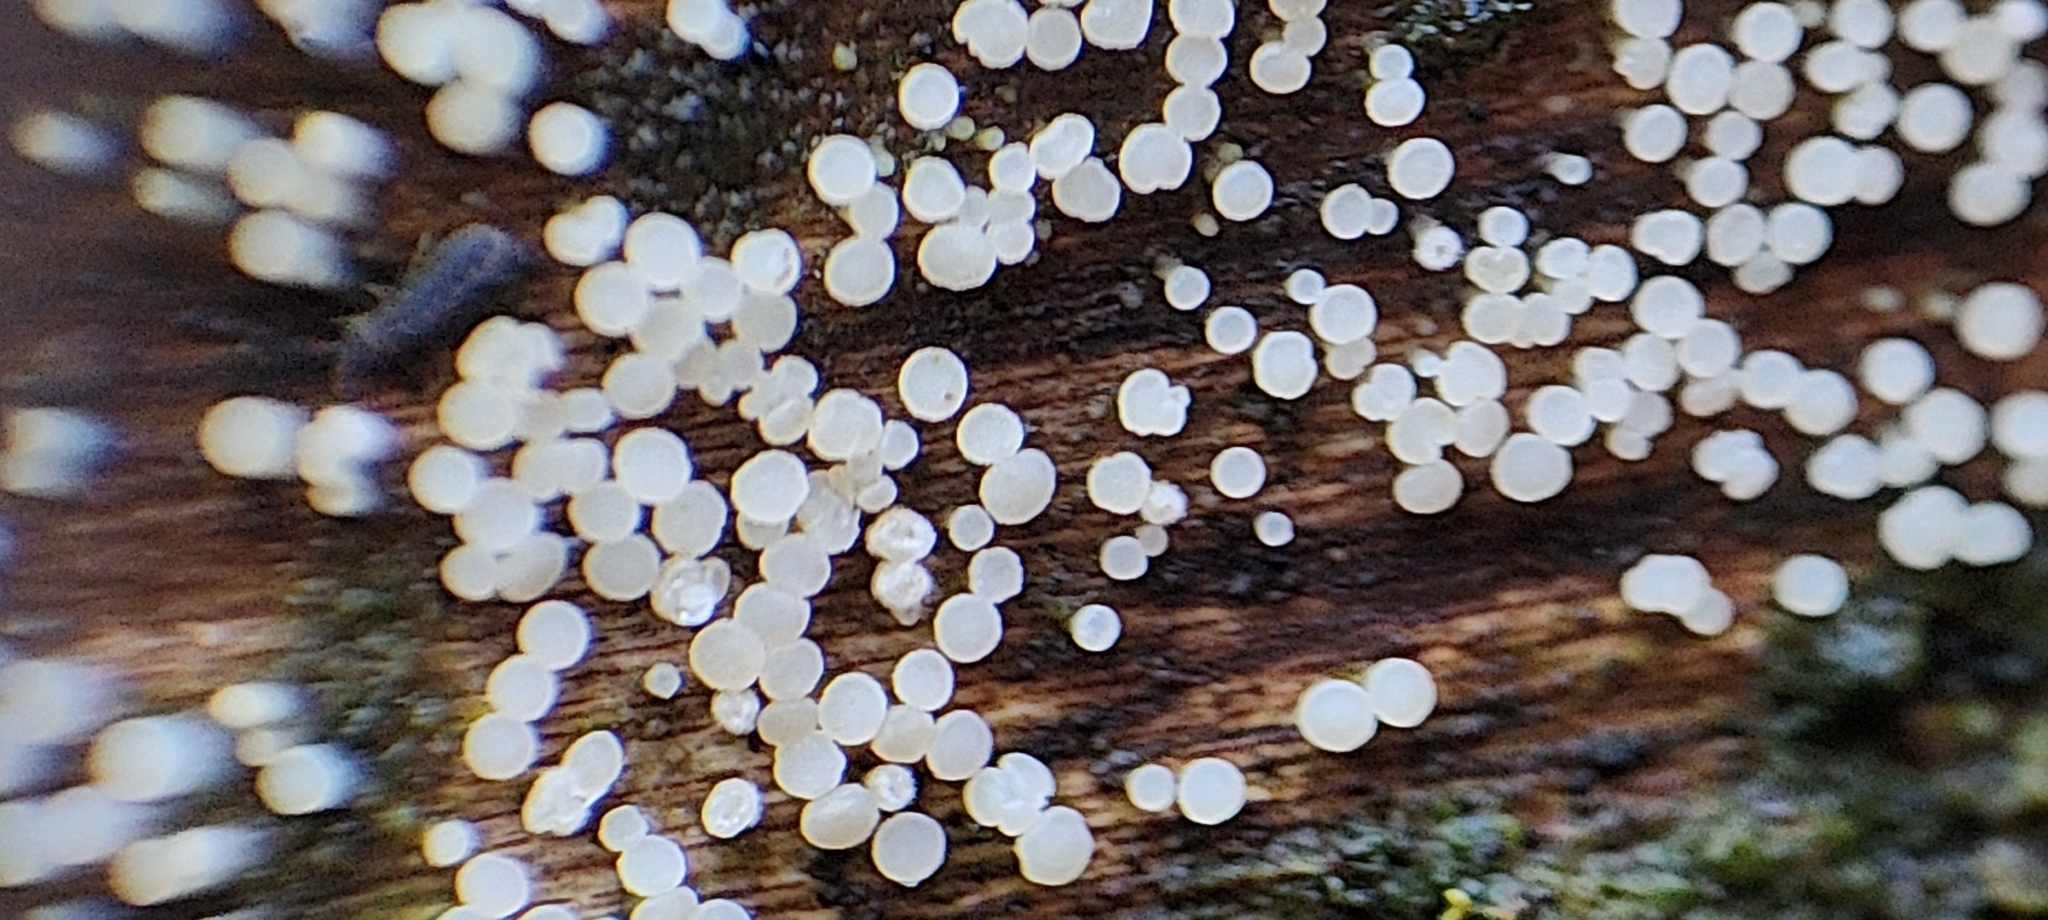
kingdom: Fungi
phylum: Ascomycota
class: Leotiomycetes
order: Helotiales
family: Pezizellaceae
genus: Calycina
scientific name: Calycina lactea
